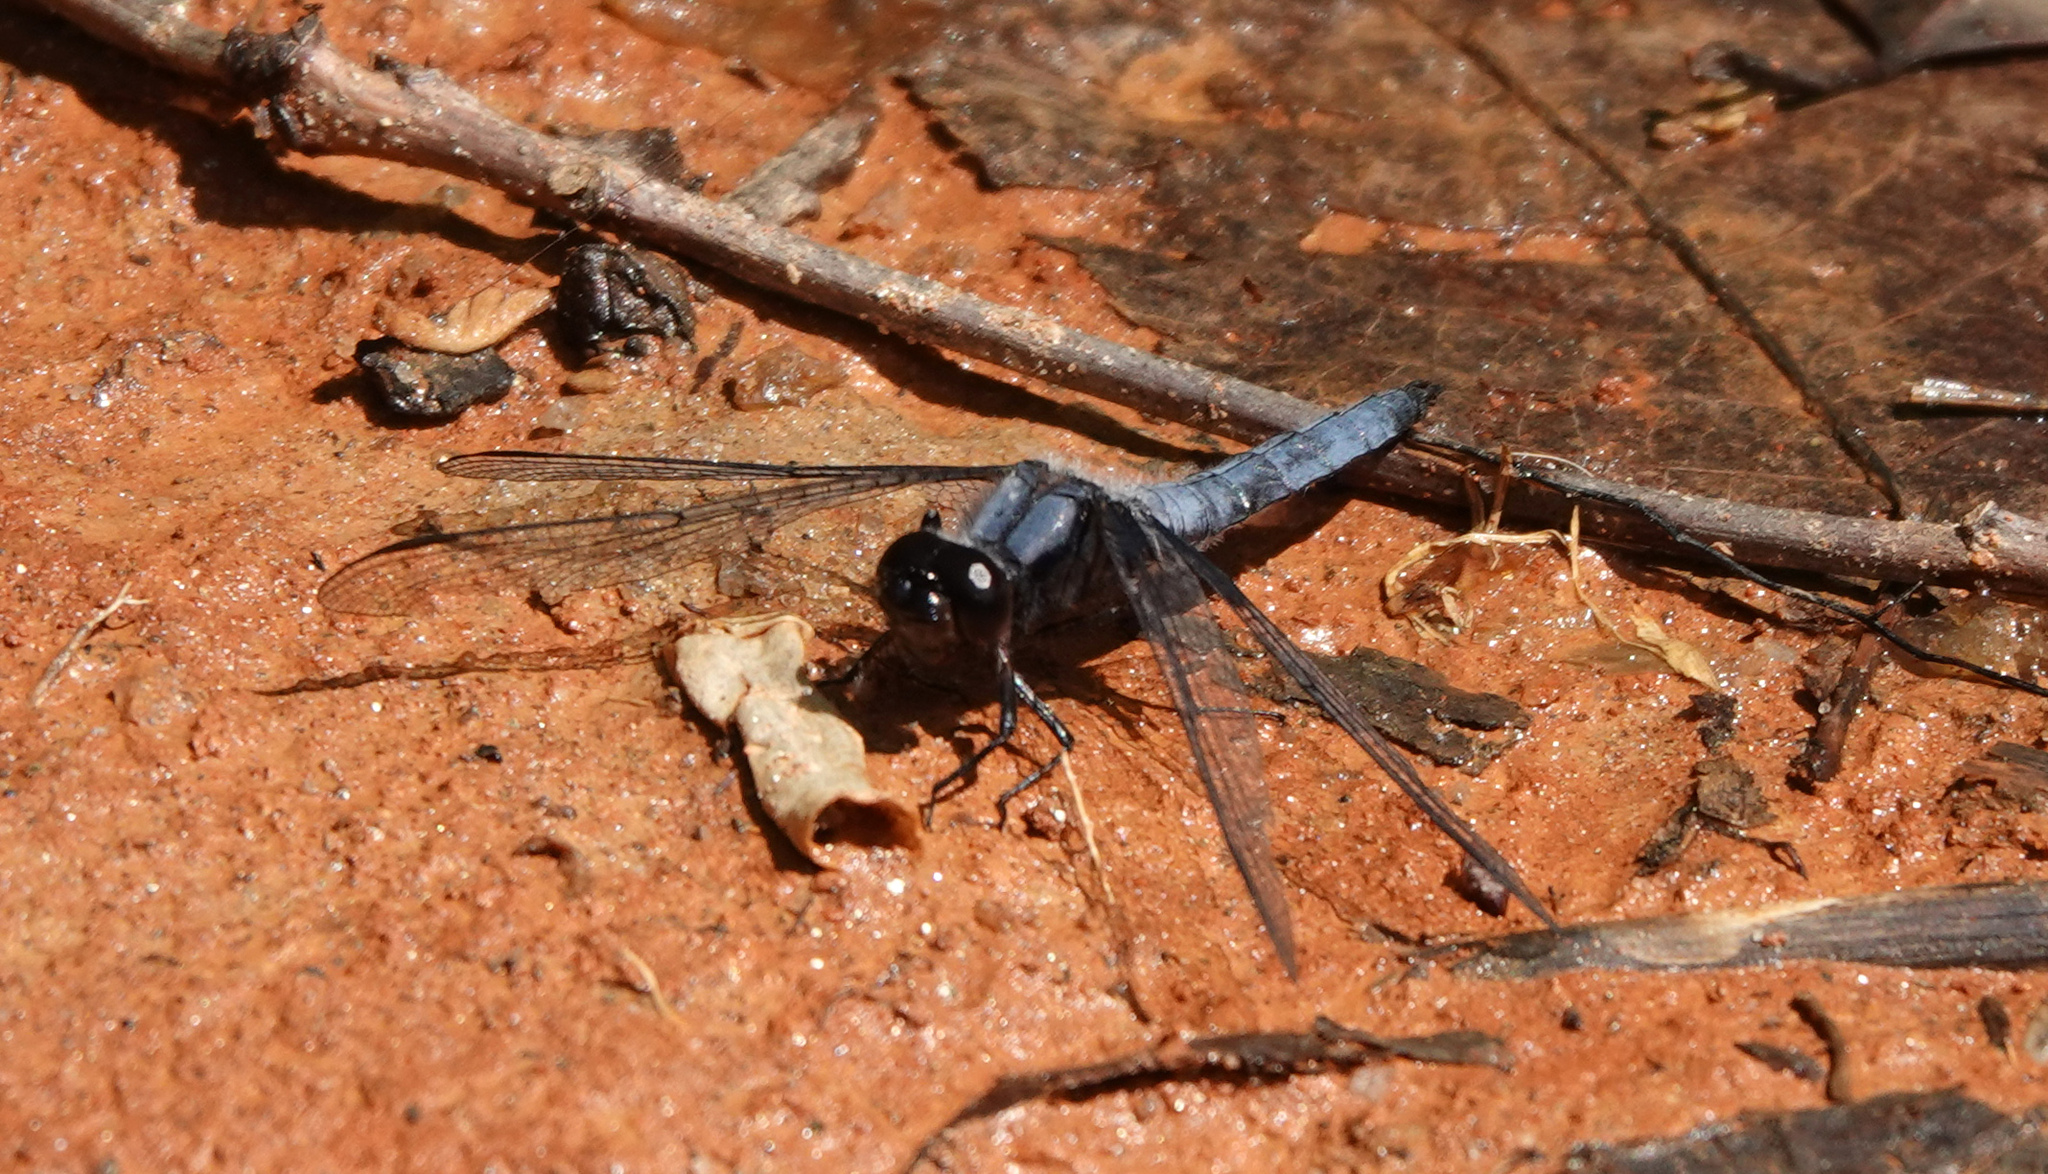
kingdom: Animalia
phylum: Arthropoda
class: Insecta
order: Odonata
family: Libellulidae
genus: Ladona
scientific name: Ladona deplanata
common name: Blue corporal
